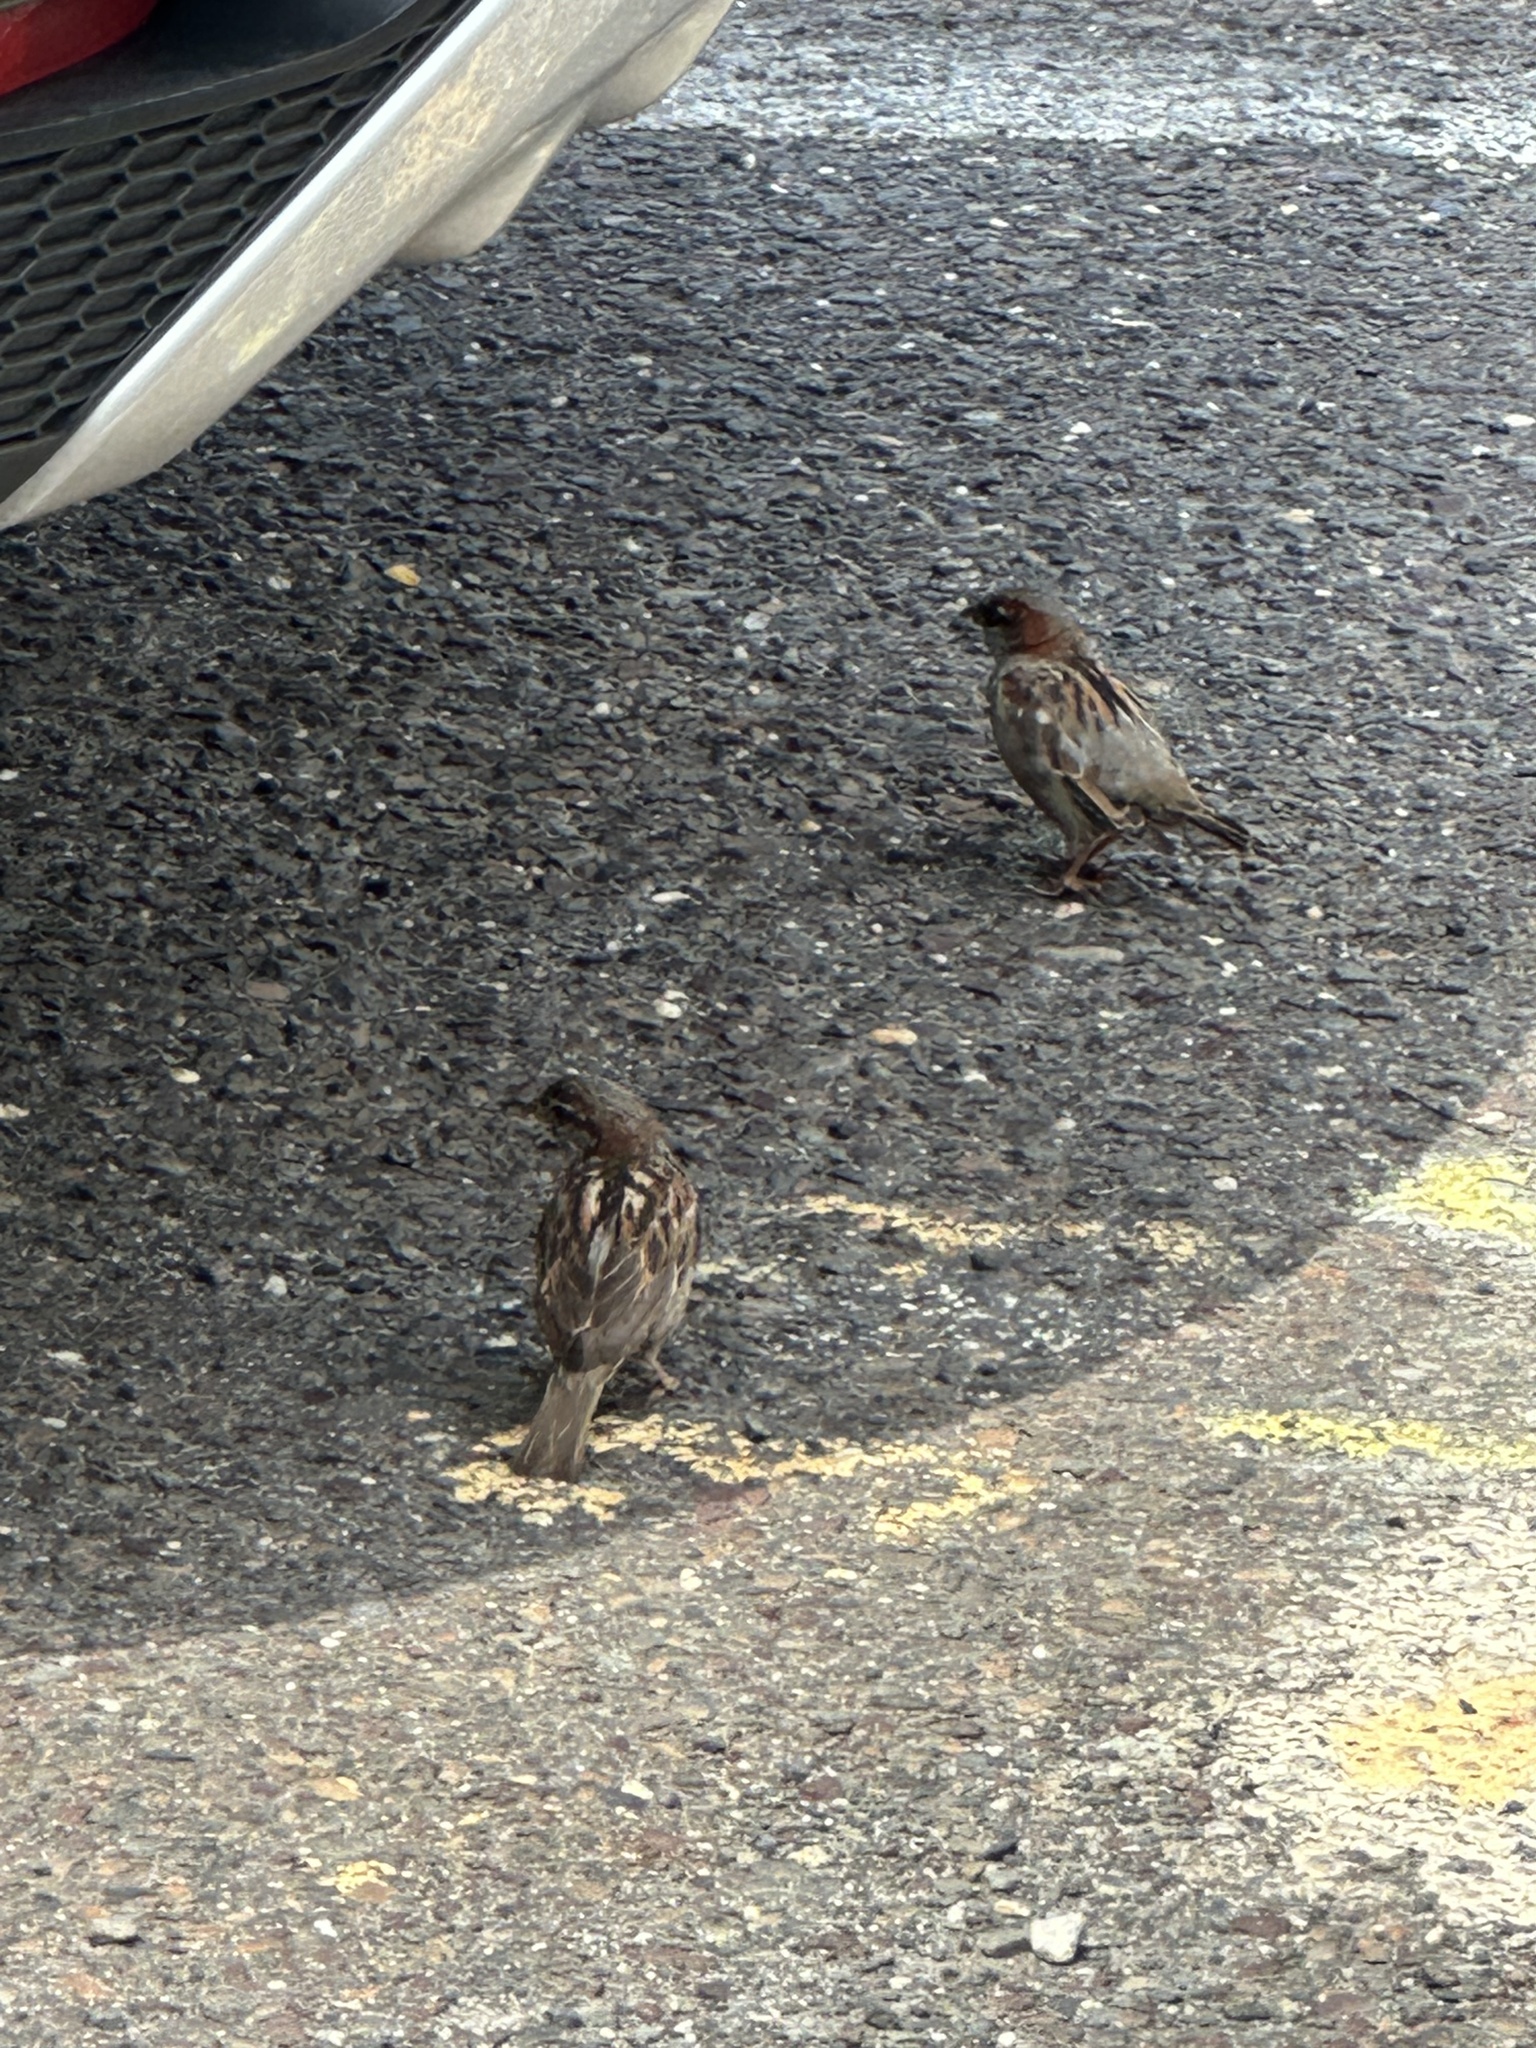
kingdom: Animalia
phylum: Chordata
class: Aves
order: Passeriformes
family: Passeridae
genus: Passer
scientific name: Passer domesticus
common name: House sparrow
